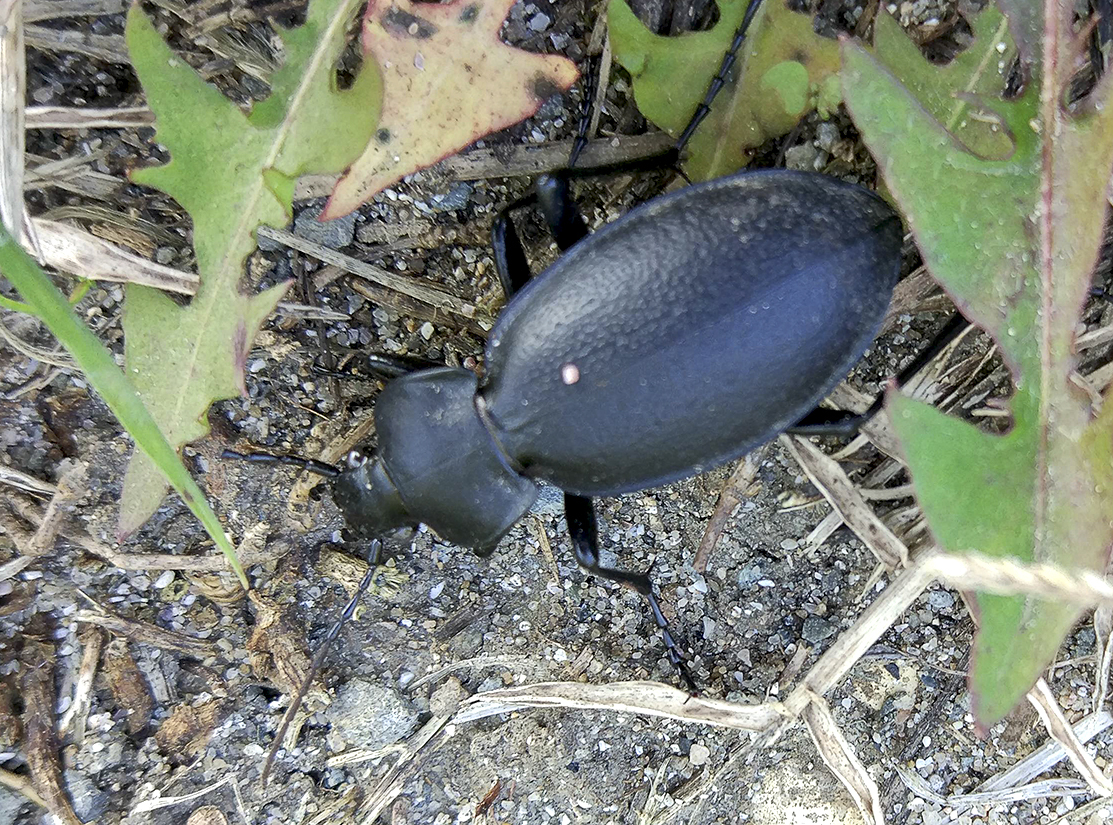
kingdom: Animalia
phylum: Arthropoda
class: Insecta
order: Coleoptera
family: Carabidae
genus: Carabus
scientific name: Carabus coriaceus
